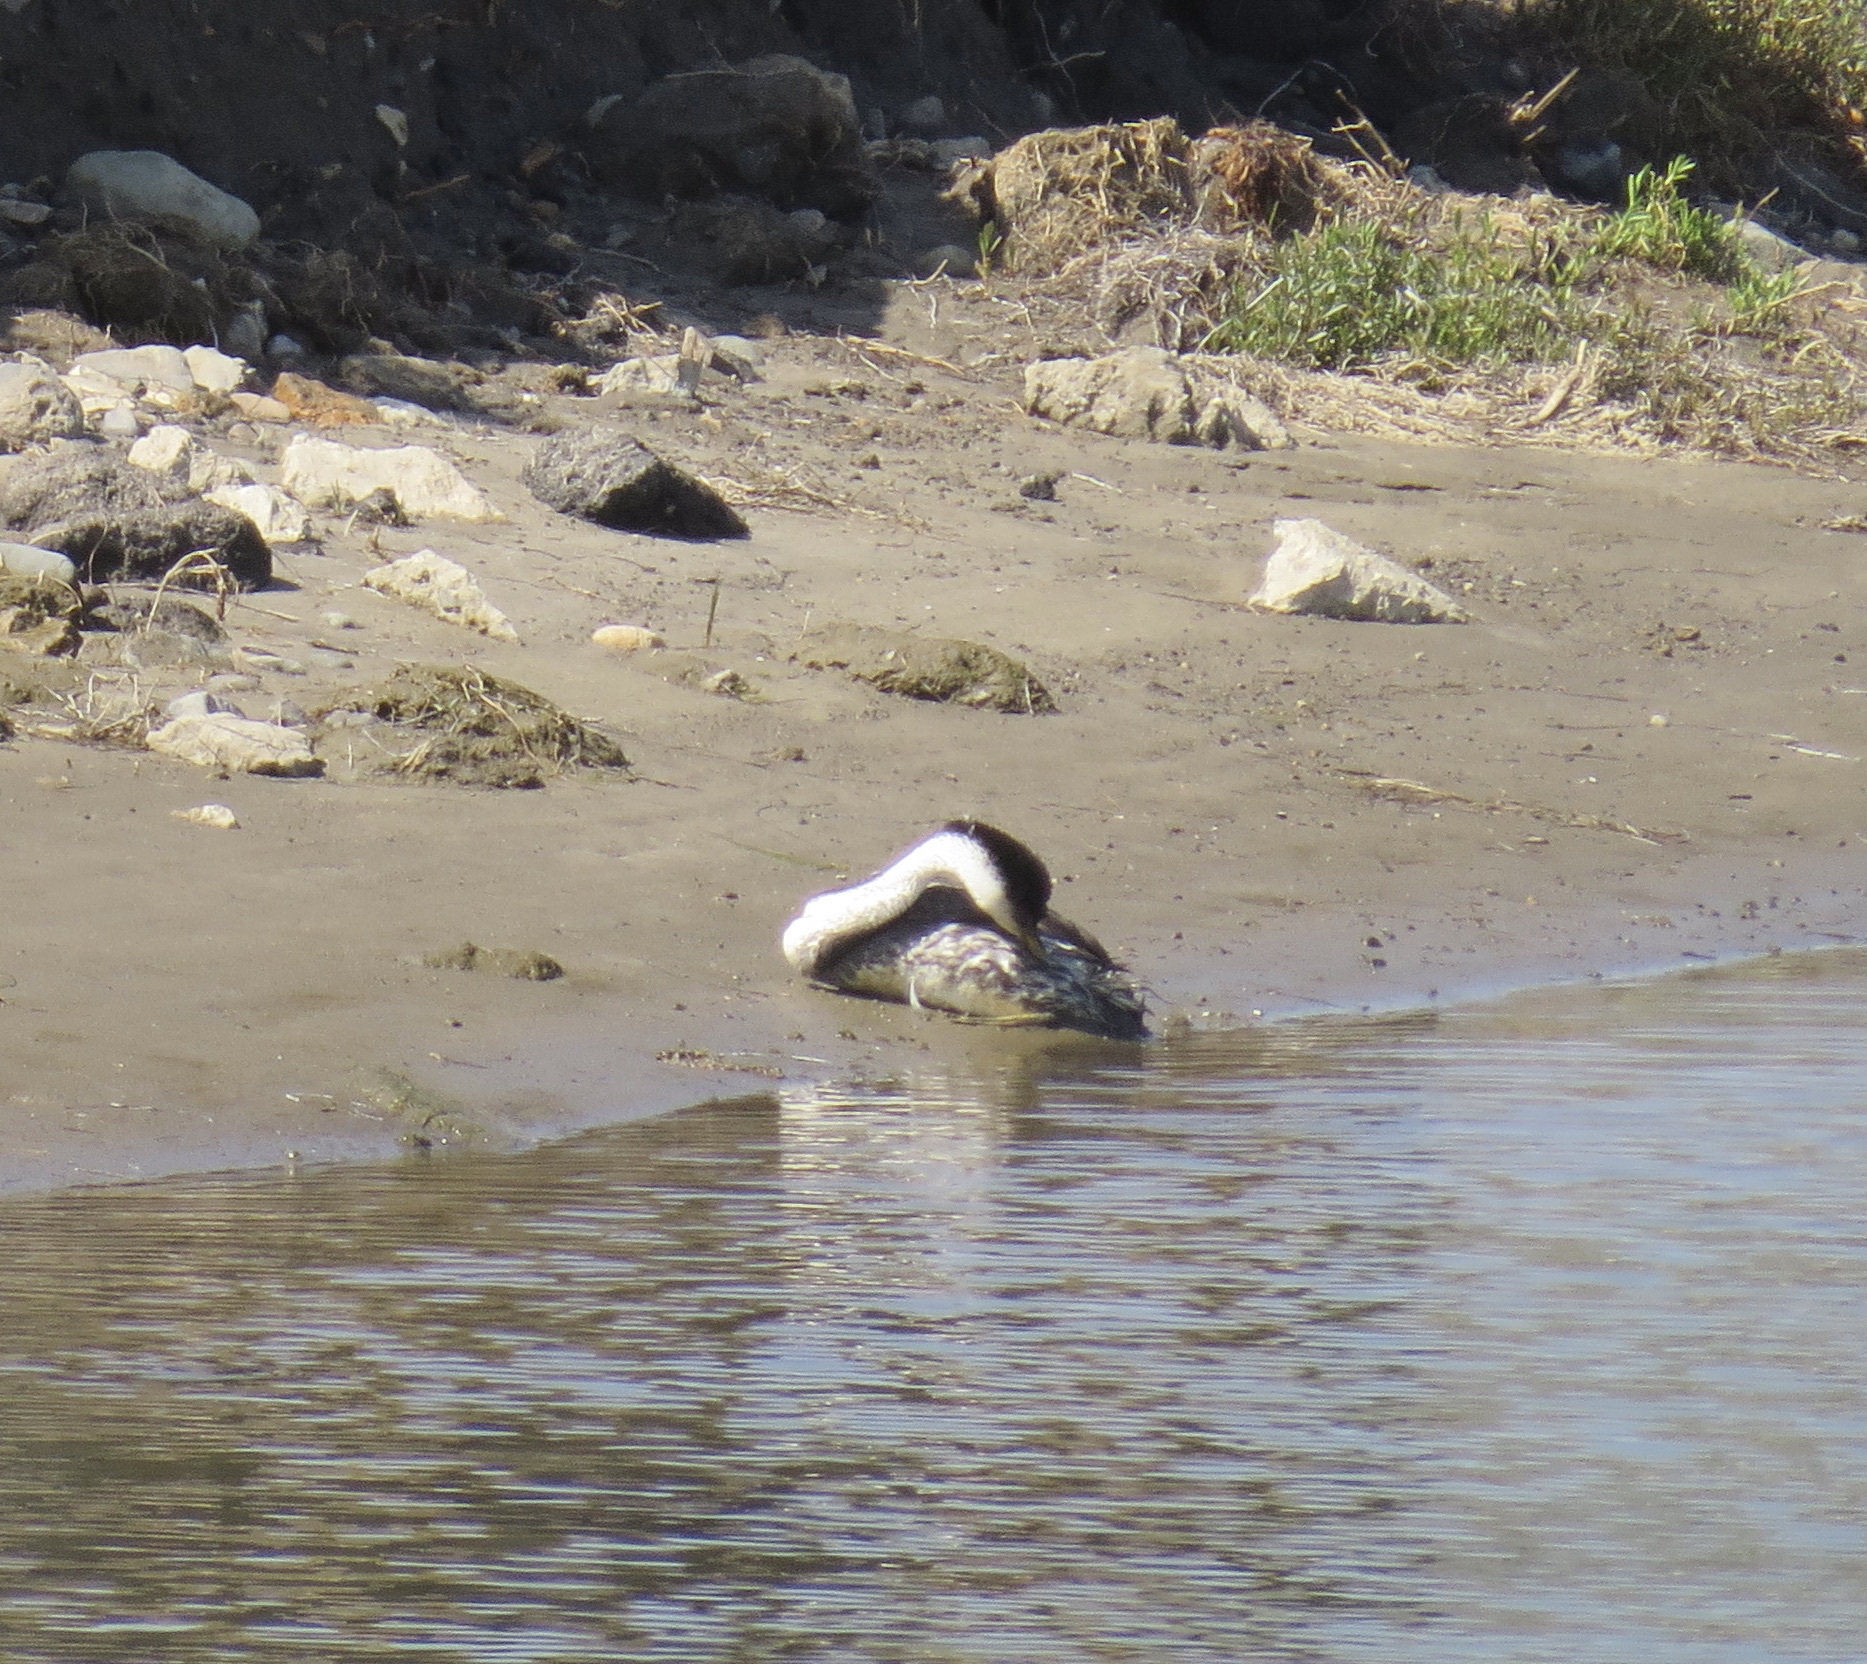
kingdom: Animalia
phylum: Chordata
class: Aves
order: Podicipediformes
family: Podicipedidae
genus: Aechmophorus
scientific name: Aechmophorus occidentalis
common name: Western grebe
